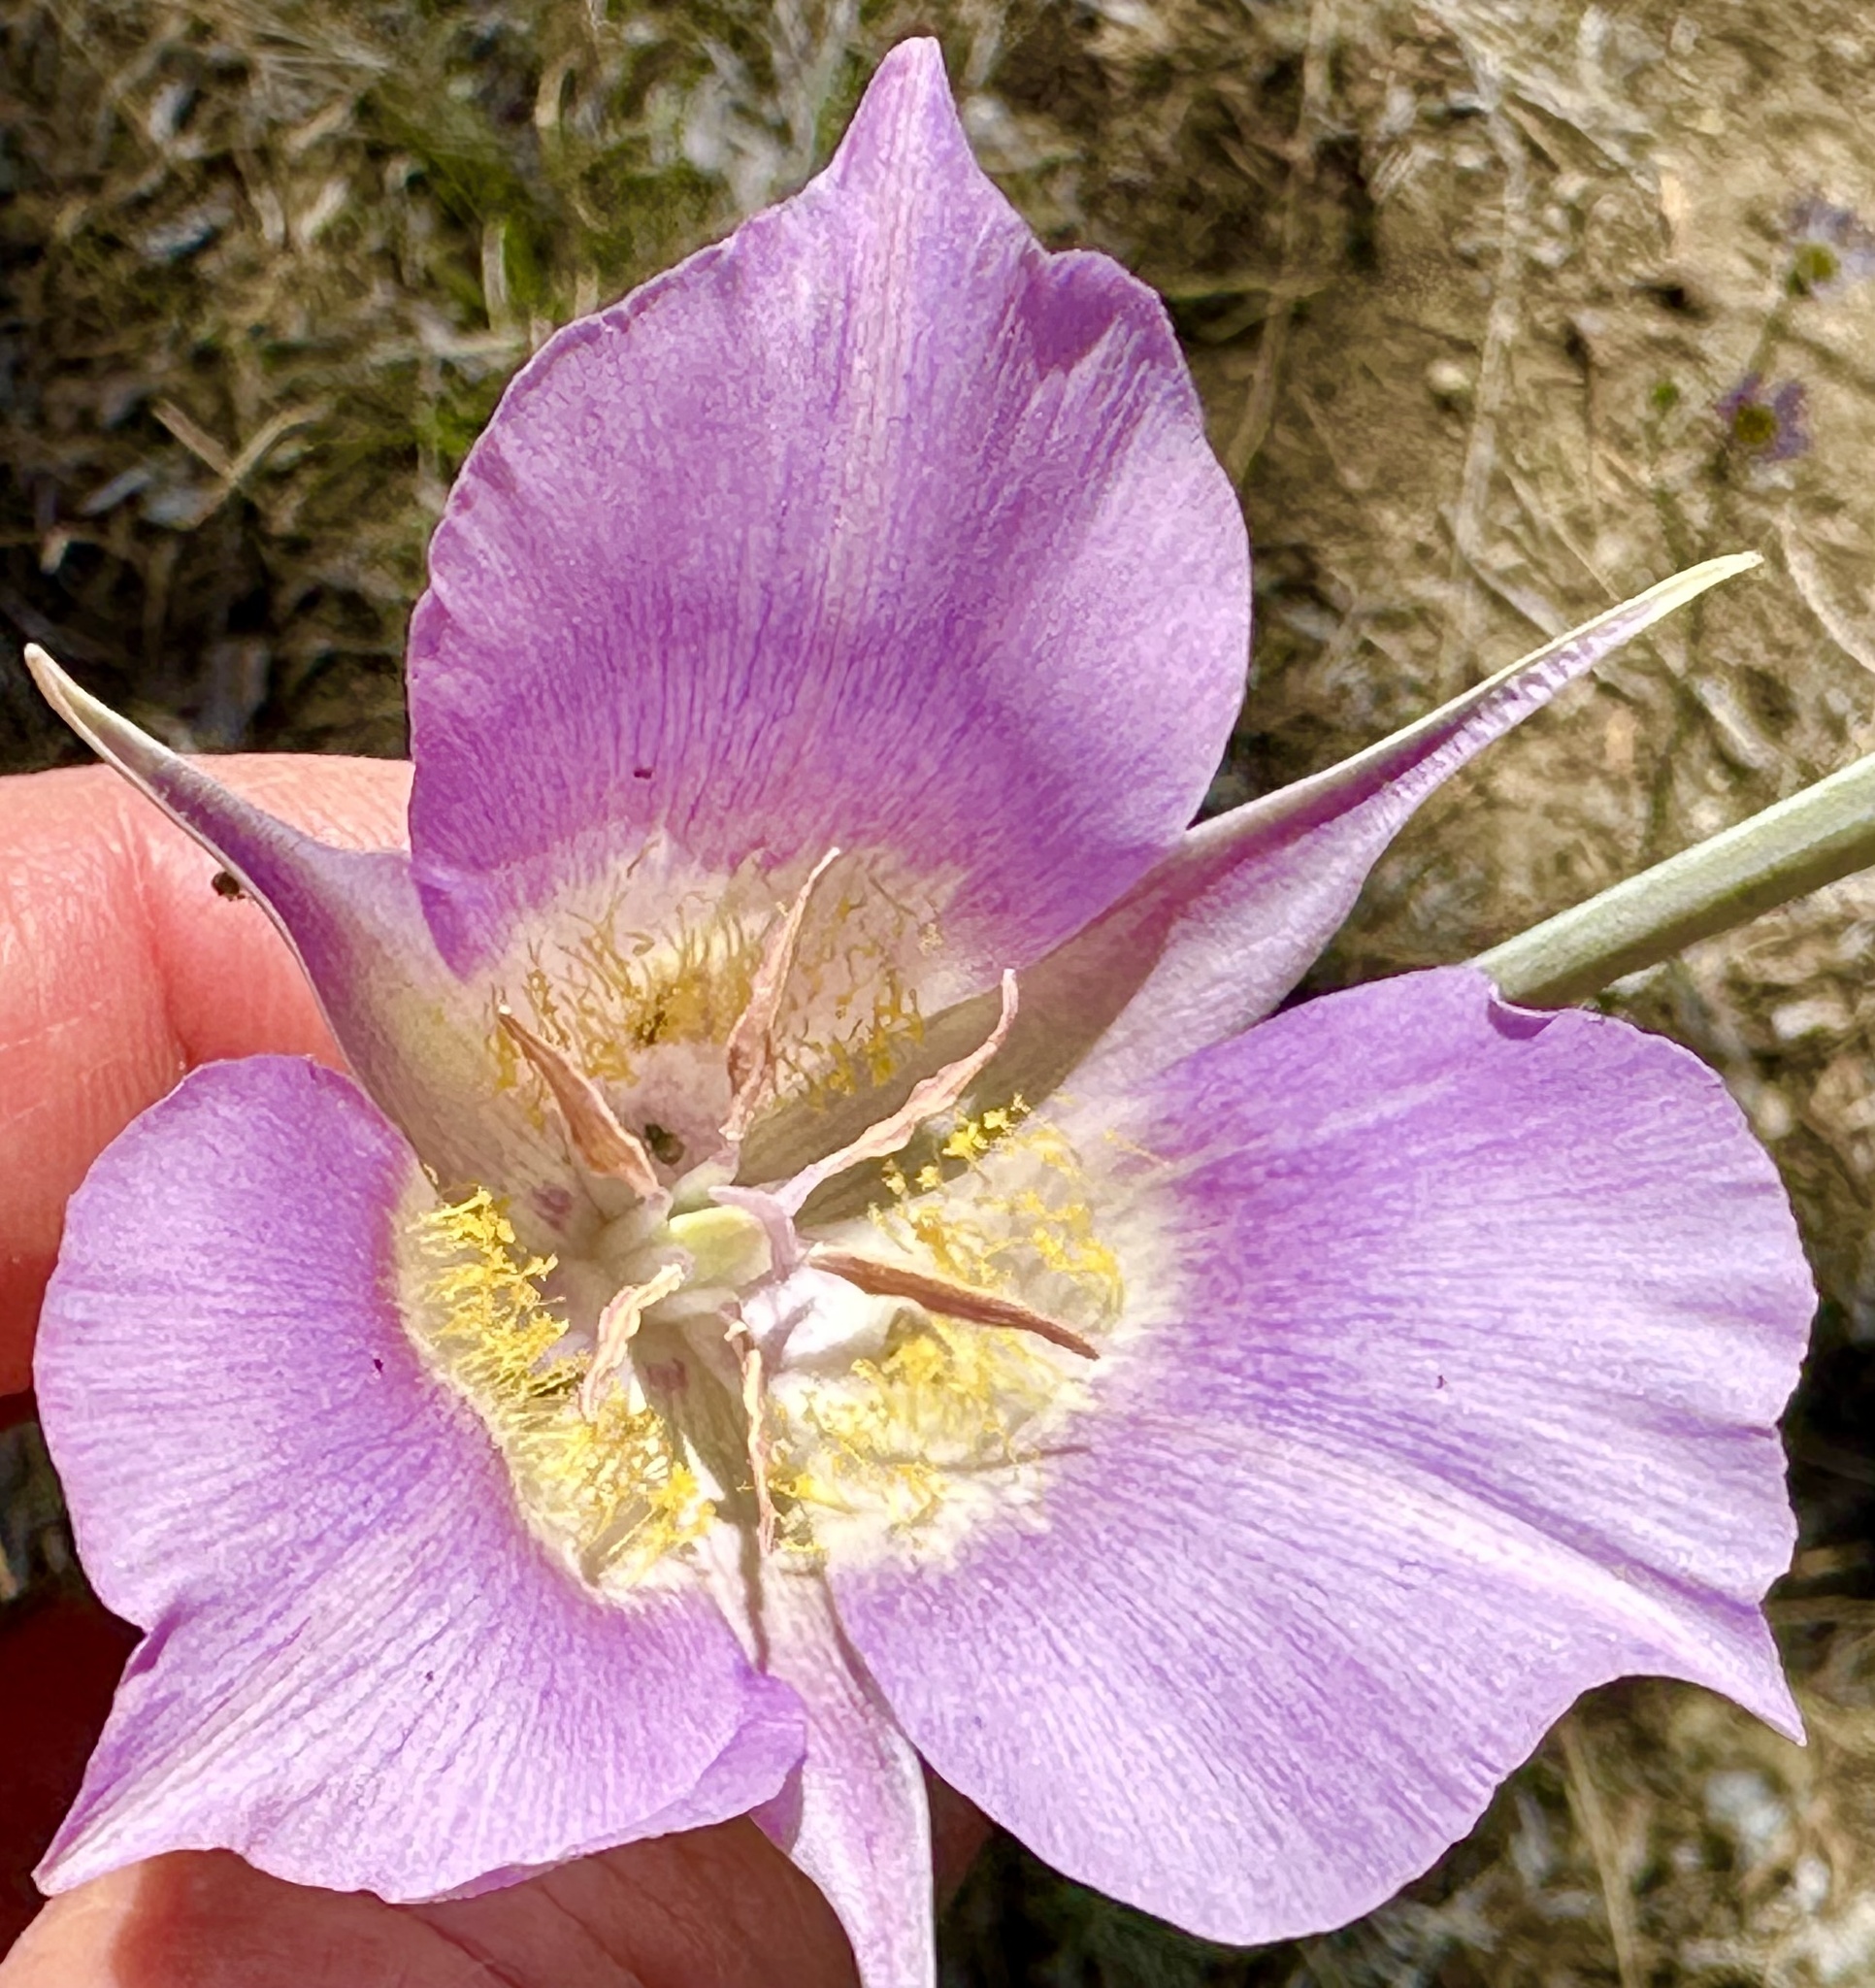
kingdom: Plantae
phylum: Tracheophyta
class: Liliopsida
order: Liliales
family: Liliaceae
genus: Calochortus
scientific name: Calochortus macrocarpus
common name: Green-band mariposa lily
